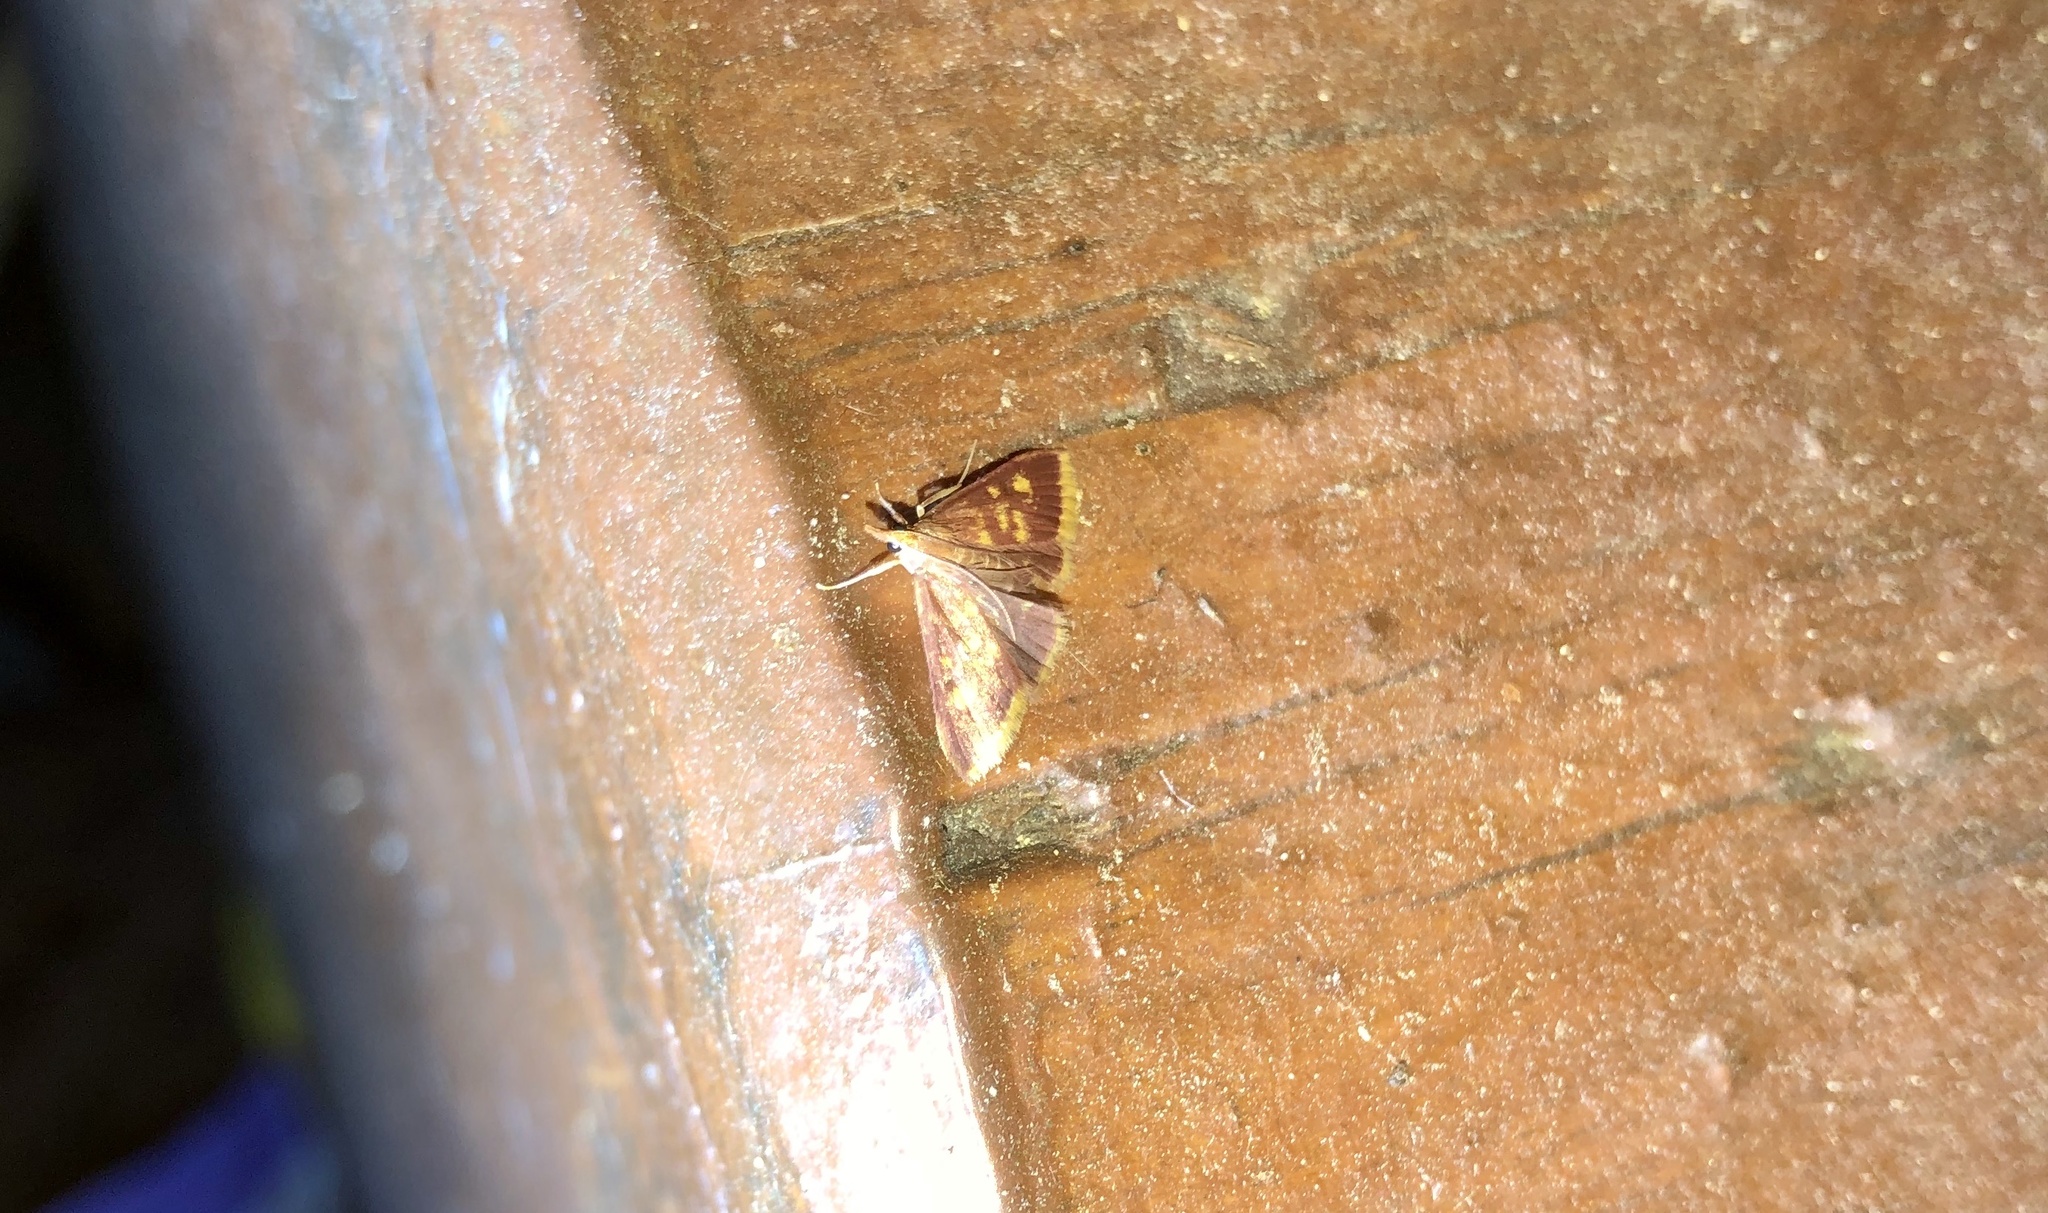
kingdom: Animalia
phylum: Arthropoda
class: Insecta
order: Lepidoptera
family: Crambidae
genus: Pyrausta
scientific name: Pyrausta acrionalis
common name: Mint-loving pyrausta moth
